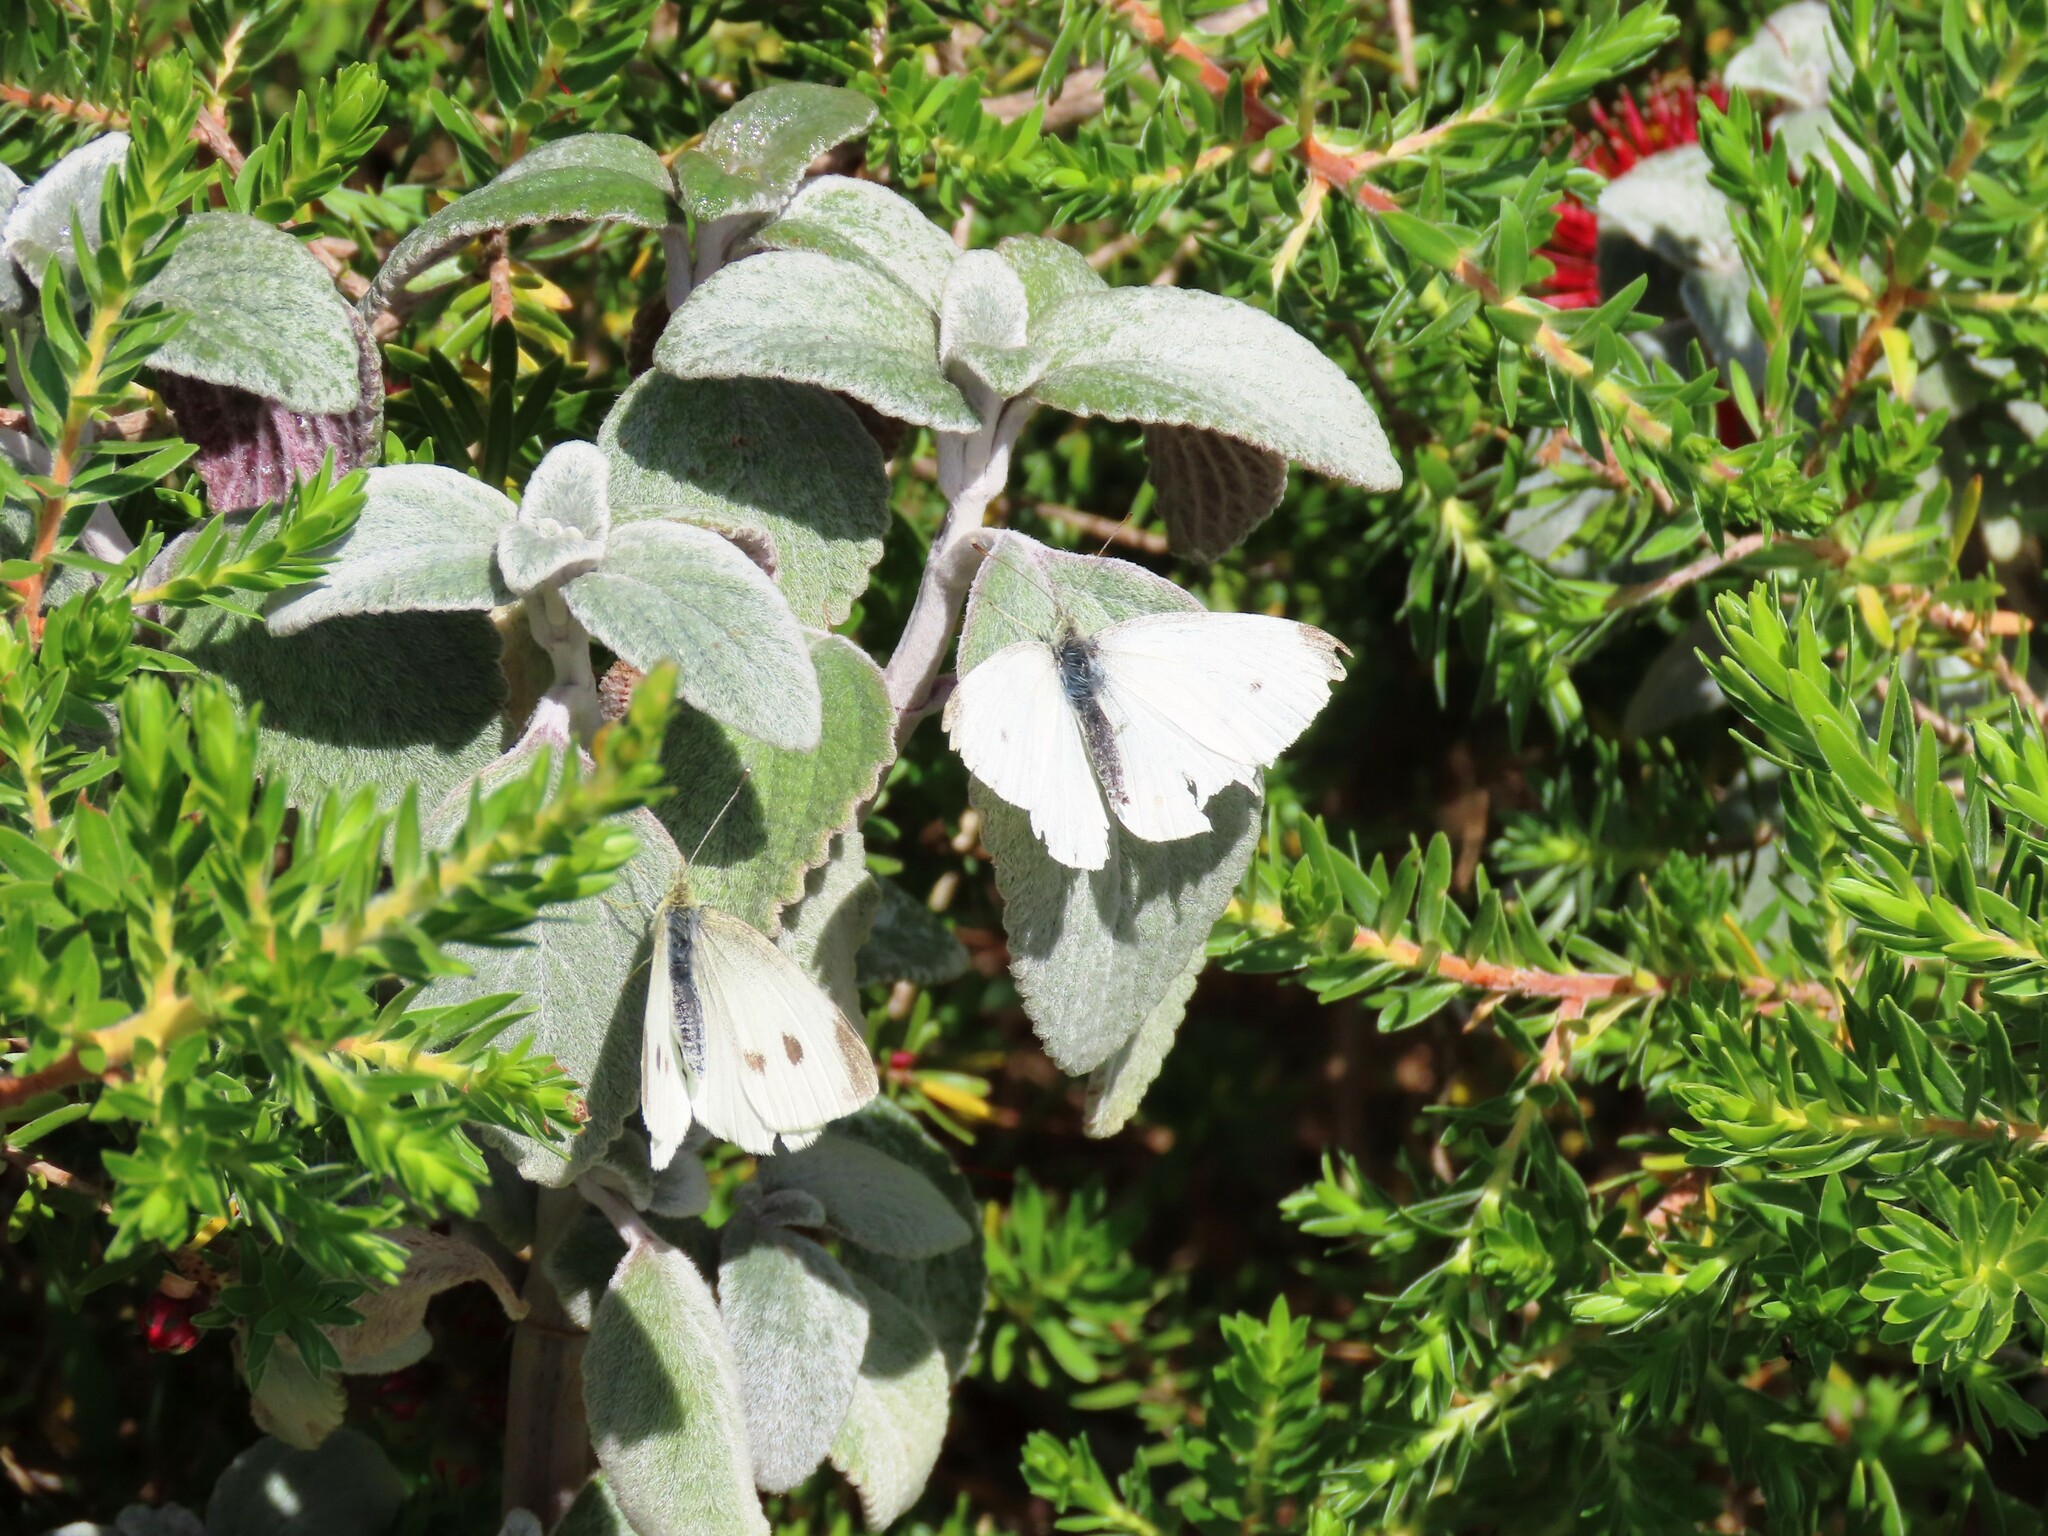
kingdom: Animalia
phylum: Arthropoda
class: Insecta
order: Lepidoptera
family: Pieridae
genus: Pieris
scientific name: Pieris rapae
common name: Small white
